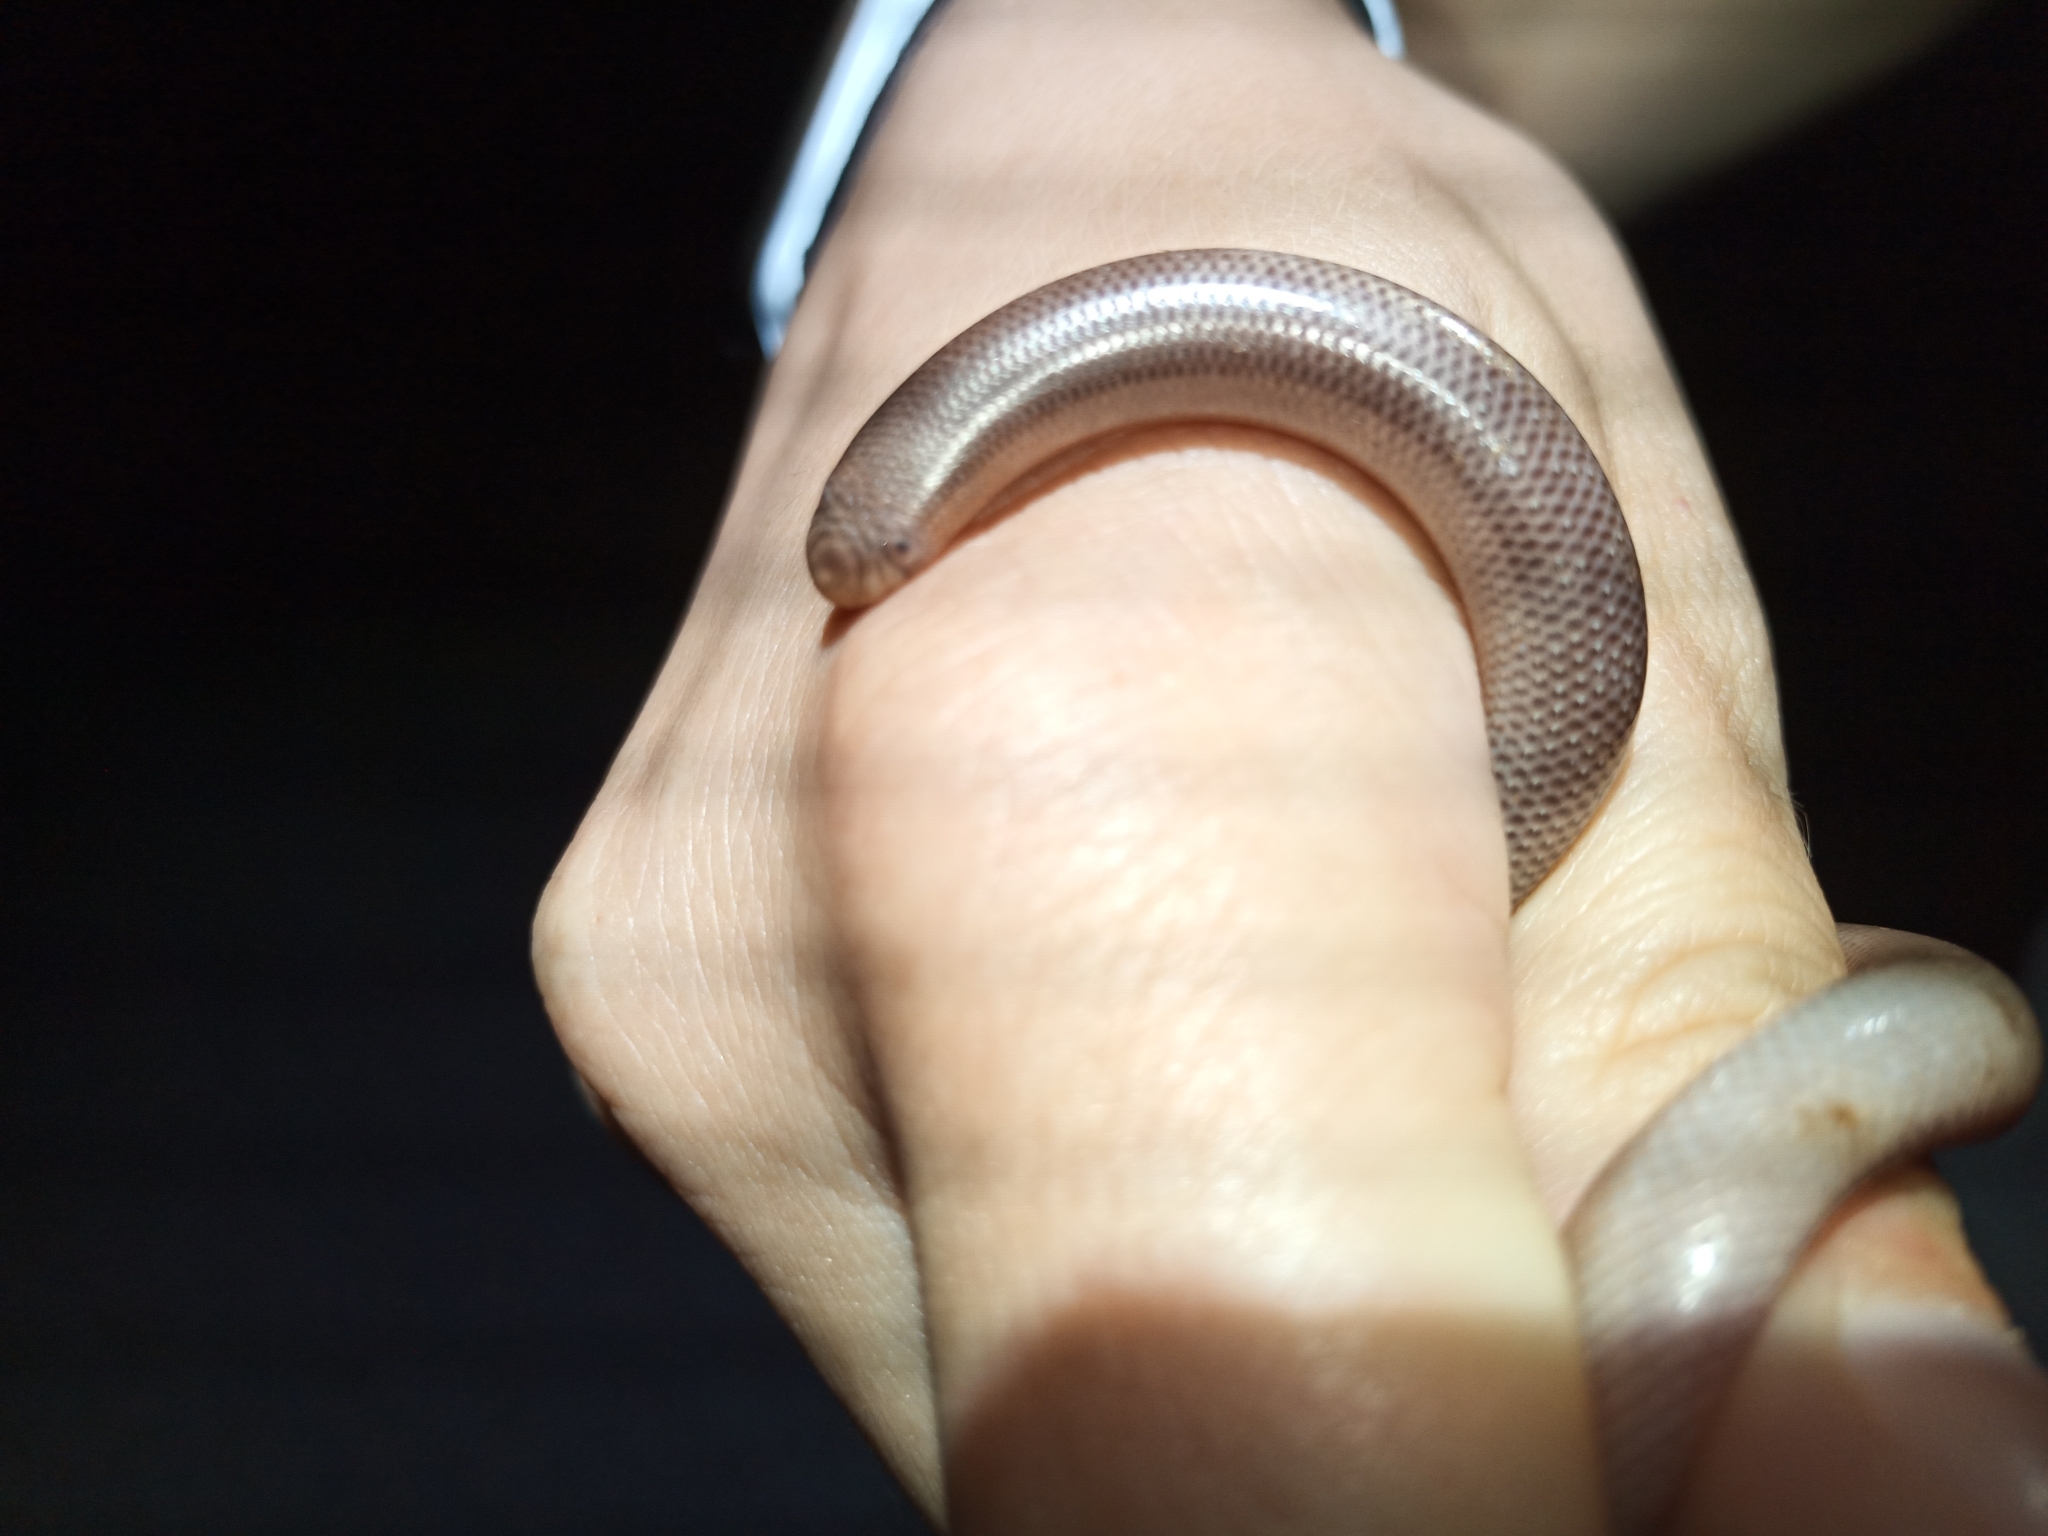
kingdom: Animalia
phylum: Chordata
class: Squamata
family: Typhlopidae
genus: Rhinotyphlops
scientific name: Rhinotyphlops lalandei
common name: Delalande's beaked blind snake
